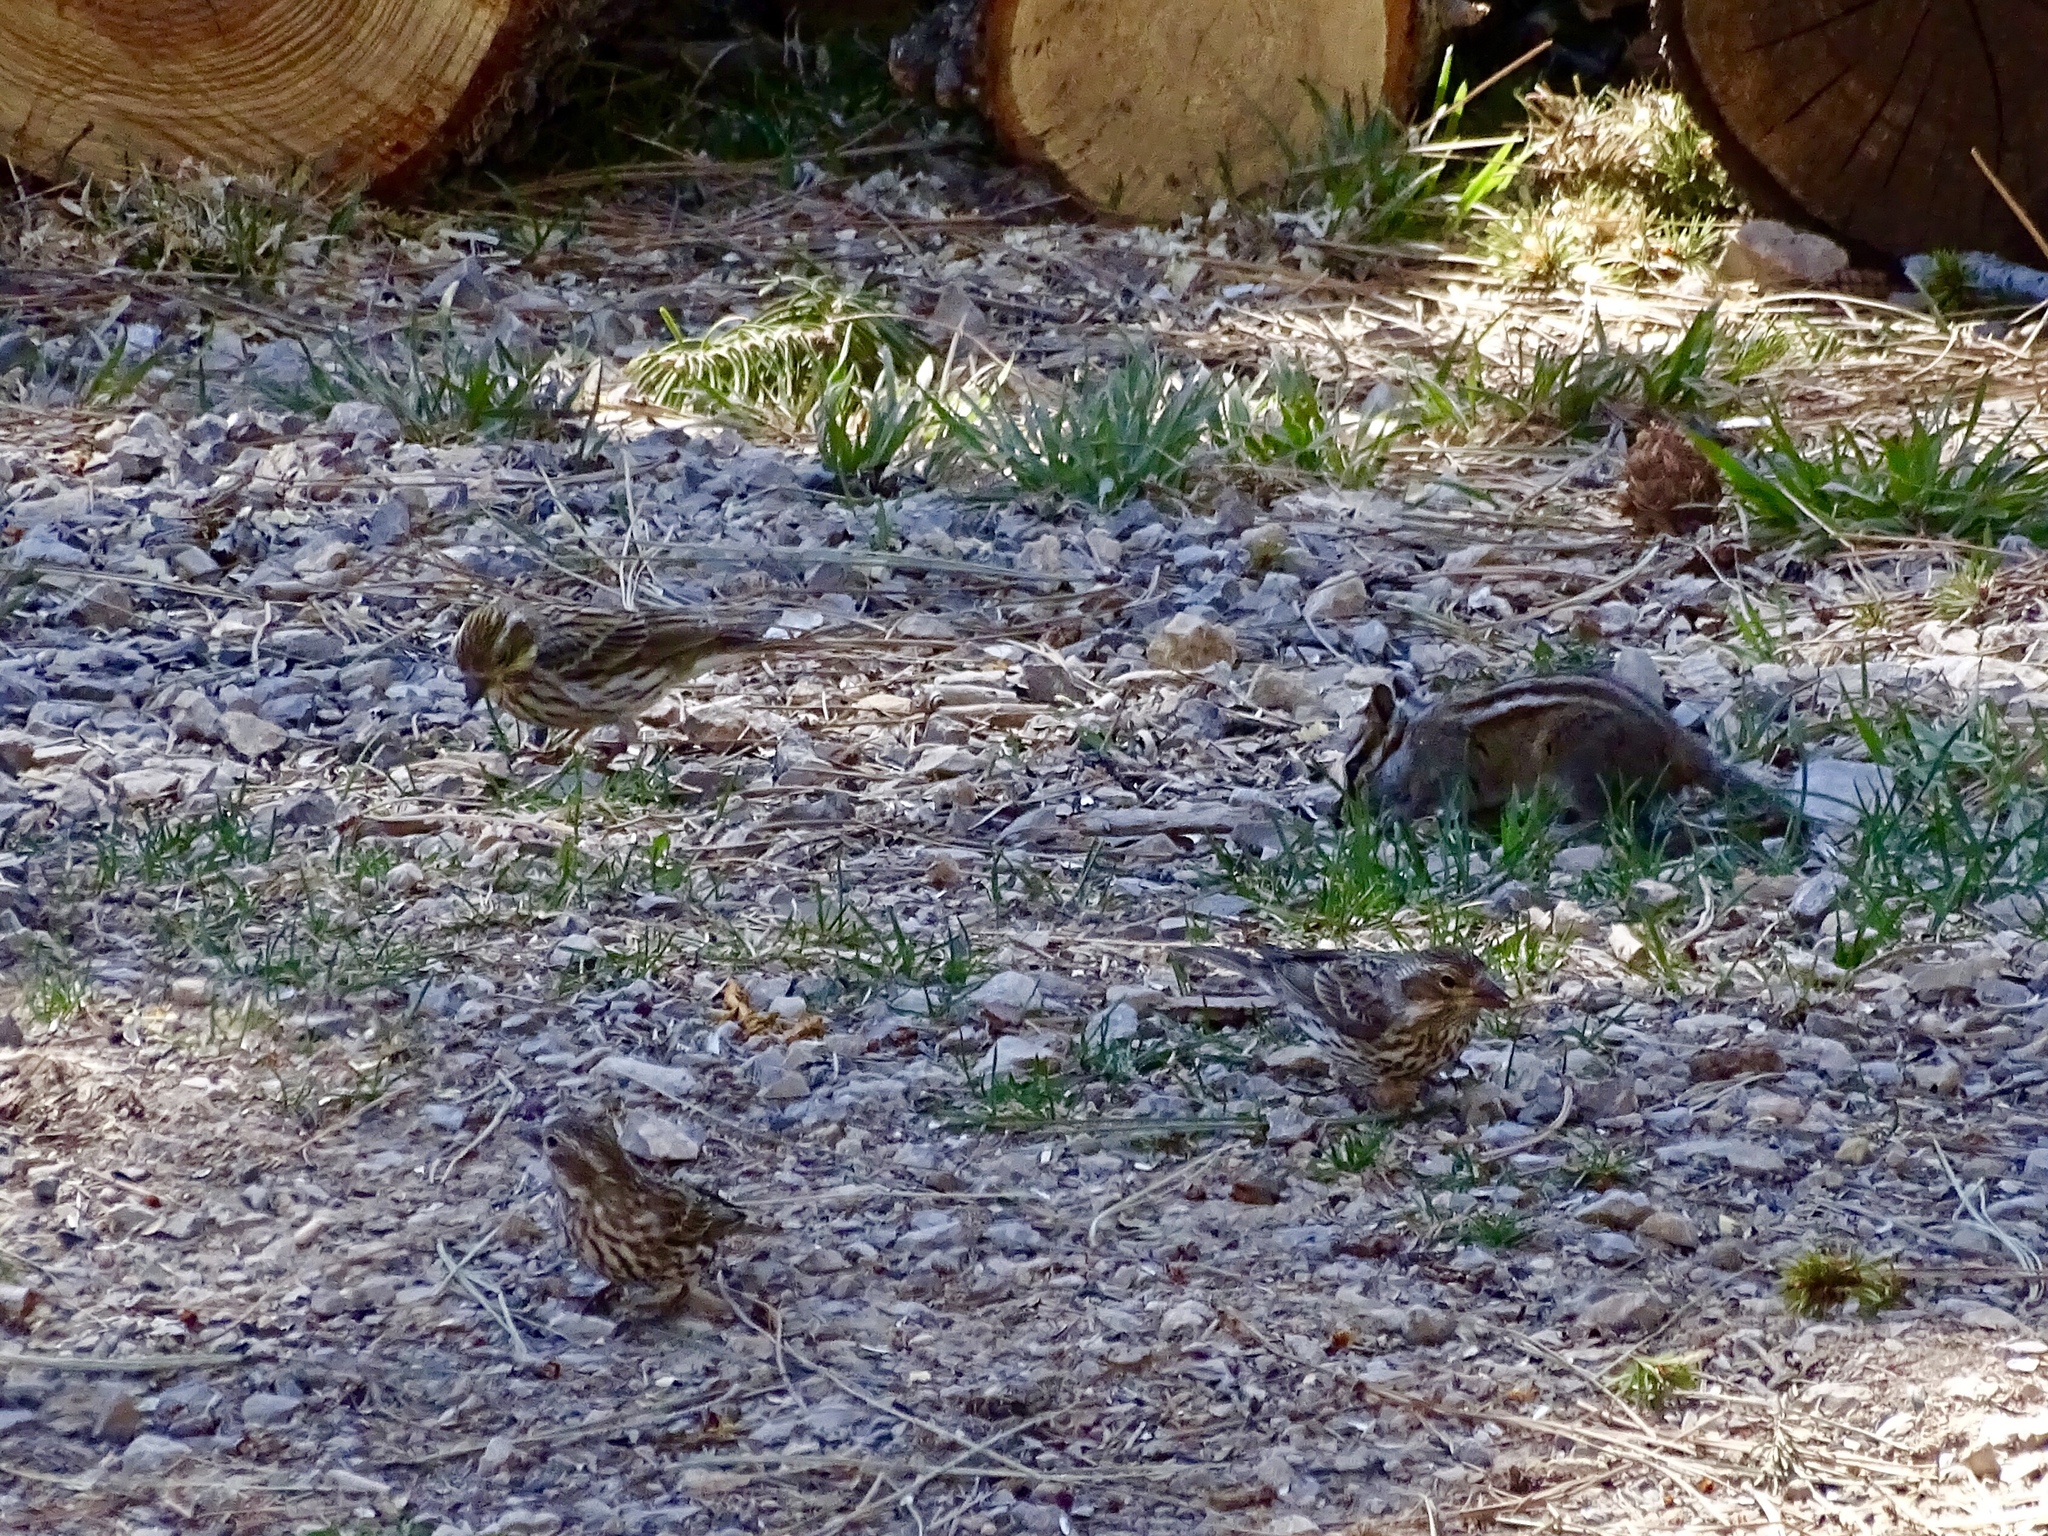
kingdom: Animalia
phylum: Chordata
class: Aves
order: Passeriformes
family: Fringillidae
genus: Haemorhous
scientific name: Haemorhous cassinii
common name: Cassin's finch
